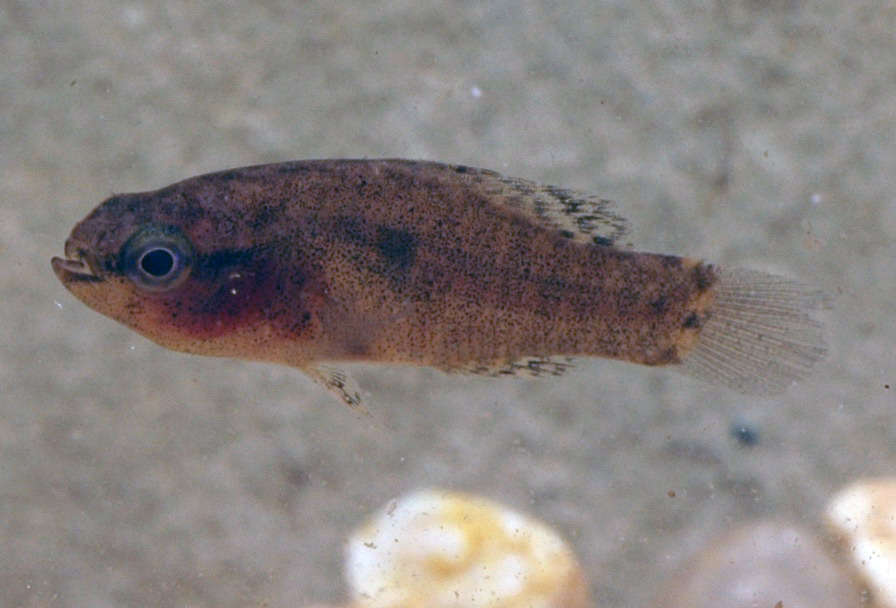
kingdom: Animalia
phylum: Chordata
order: Perciformes
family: Elassomatidae
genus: Elassoma
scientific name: Elassoma zonatum
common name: Banded pygmy sunfish
